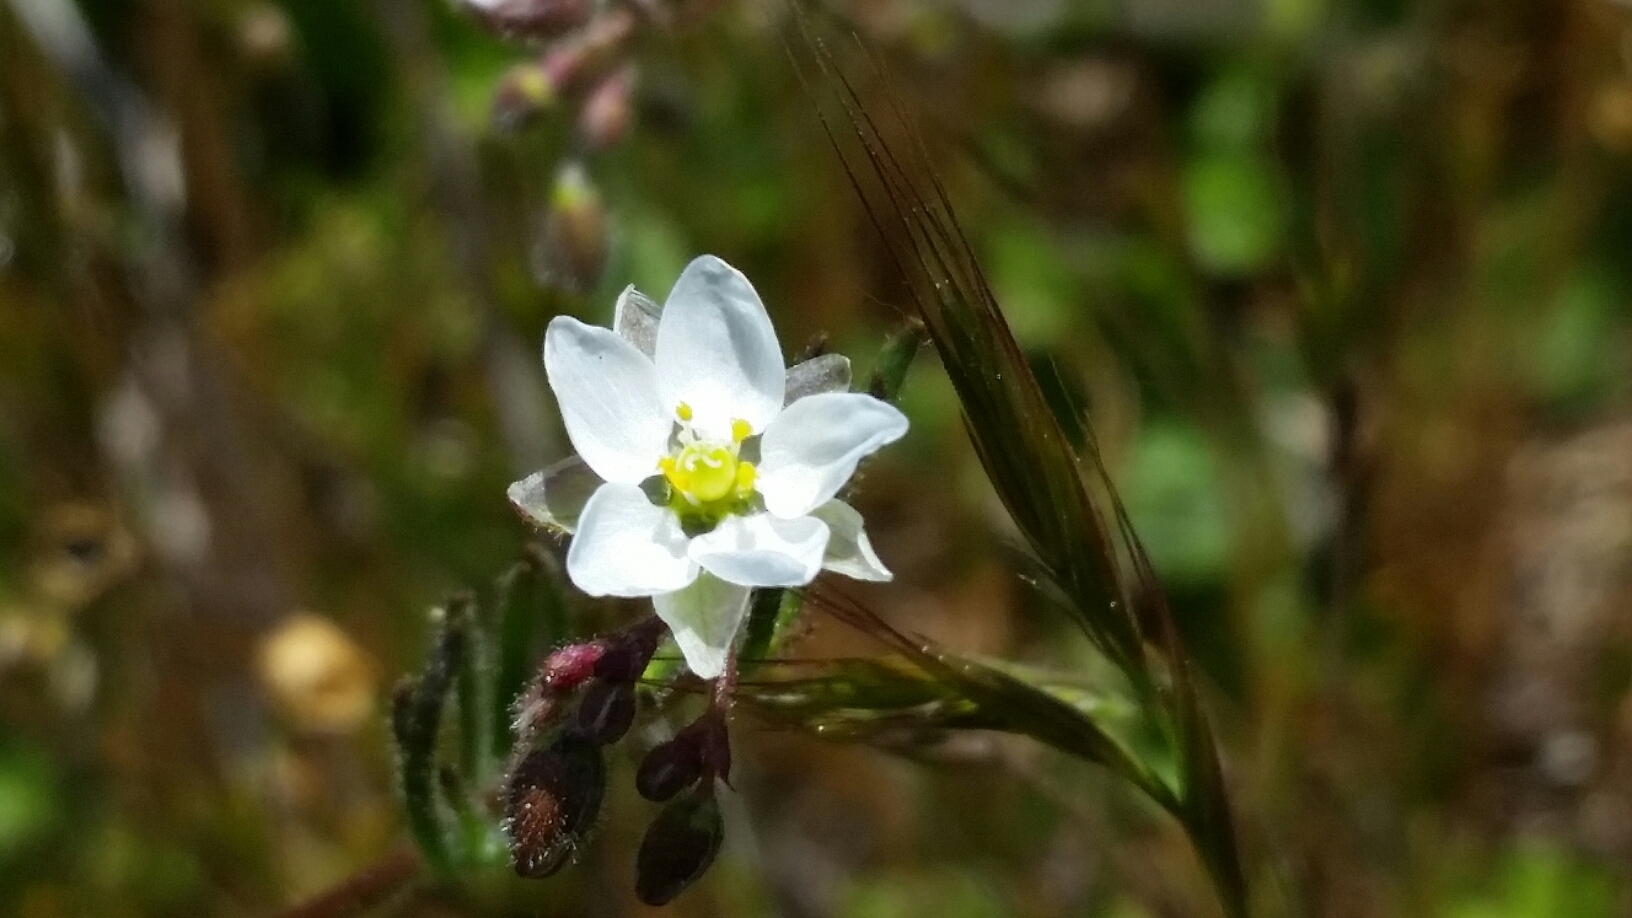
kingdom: Plantae
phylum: Tracheophyta
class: Magnoliopsida
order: Caryophyllales
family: Caryophyllaceae
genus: Spergula
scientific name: Spergula arvensis
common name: Corn spurrey
